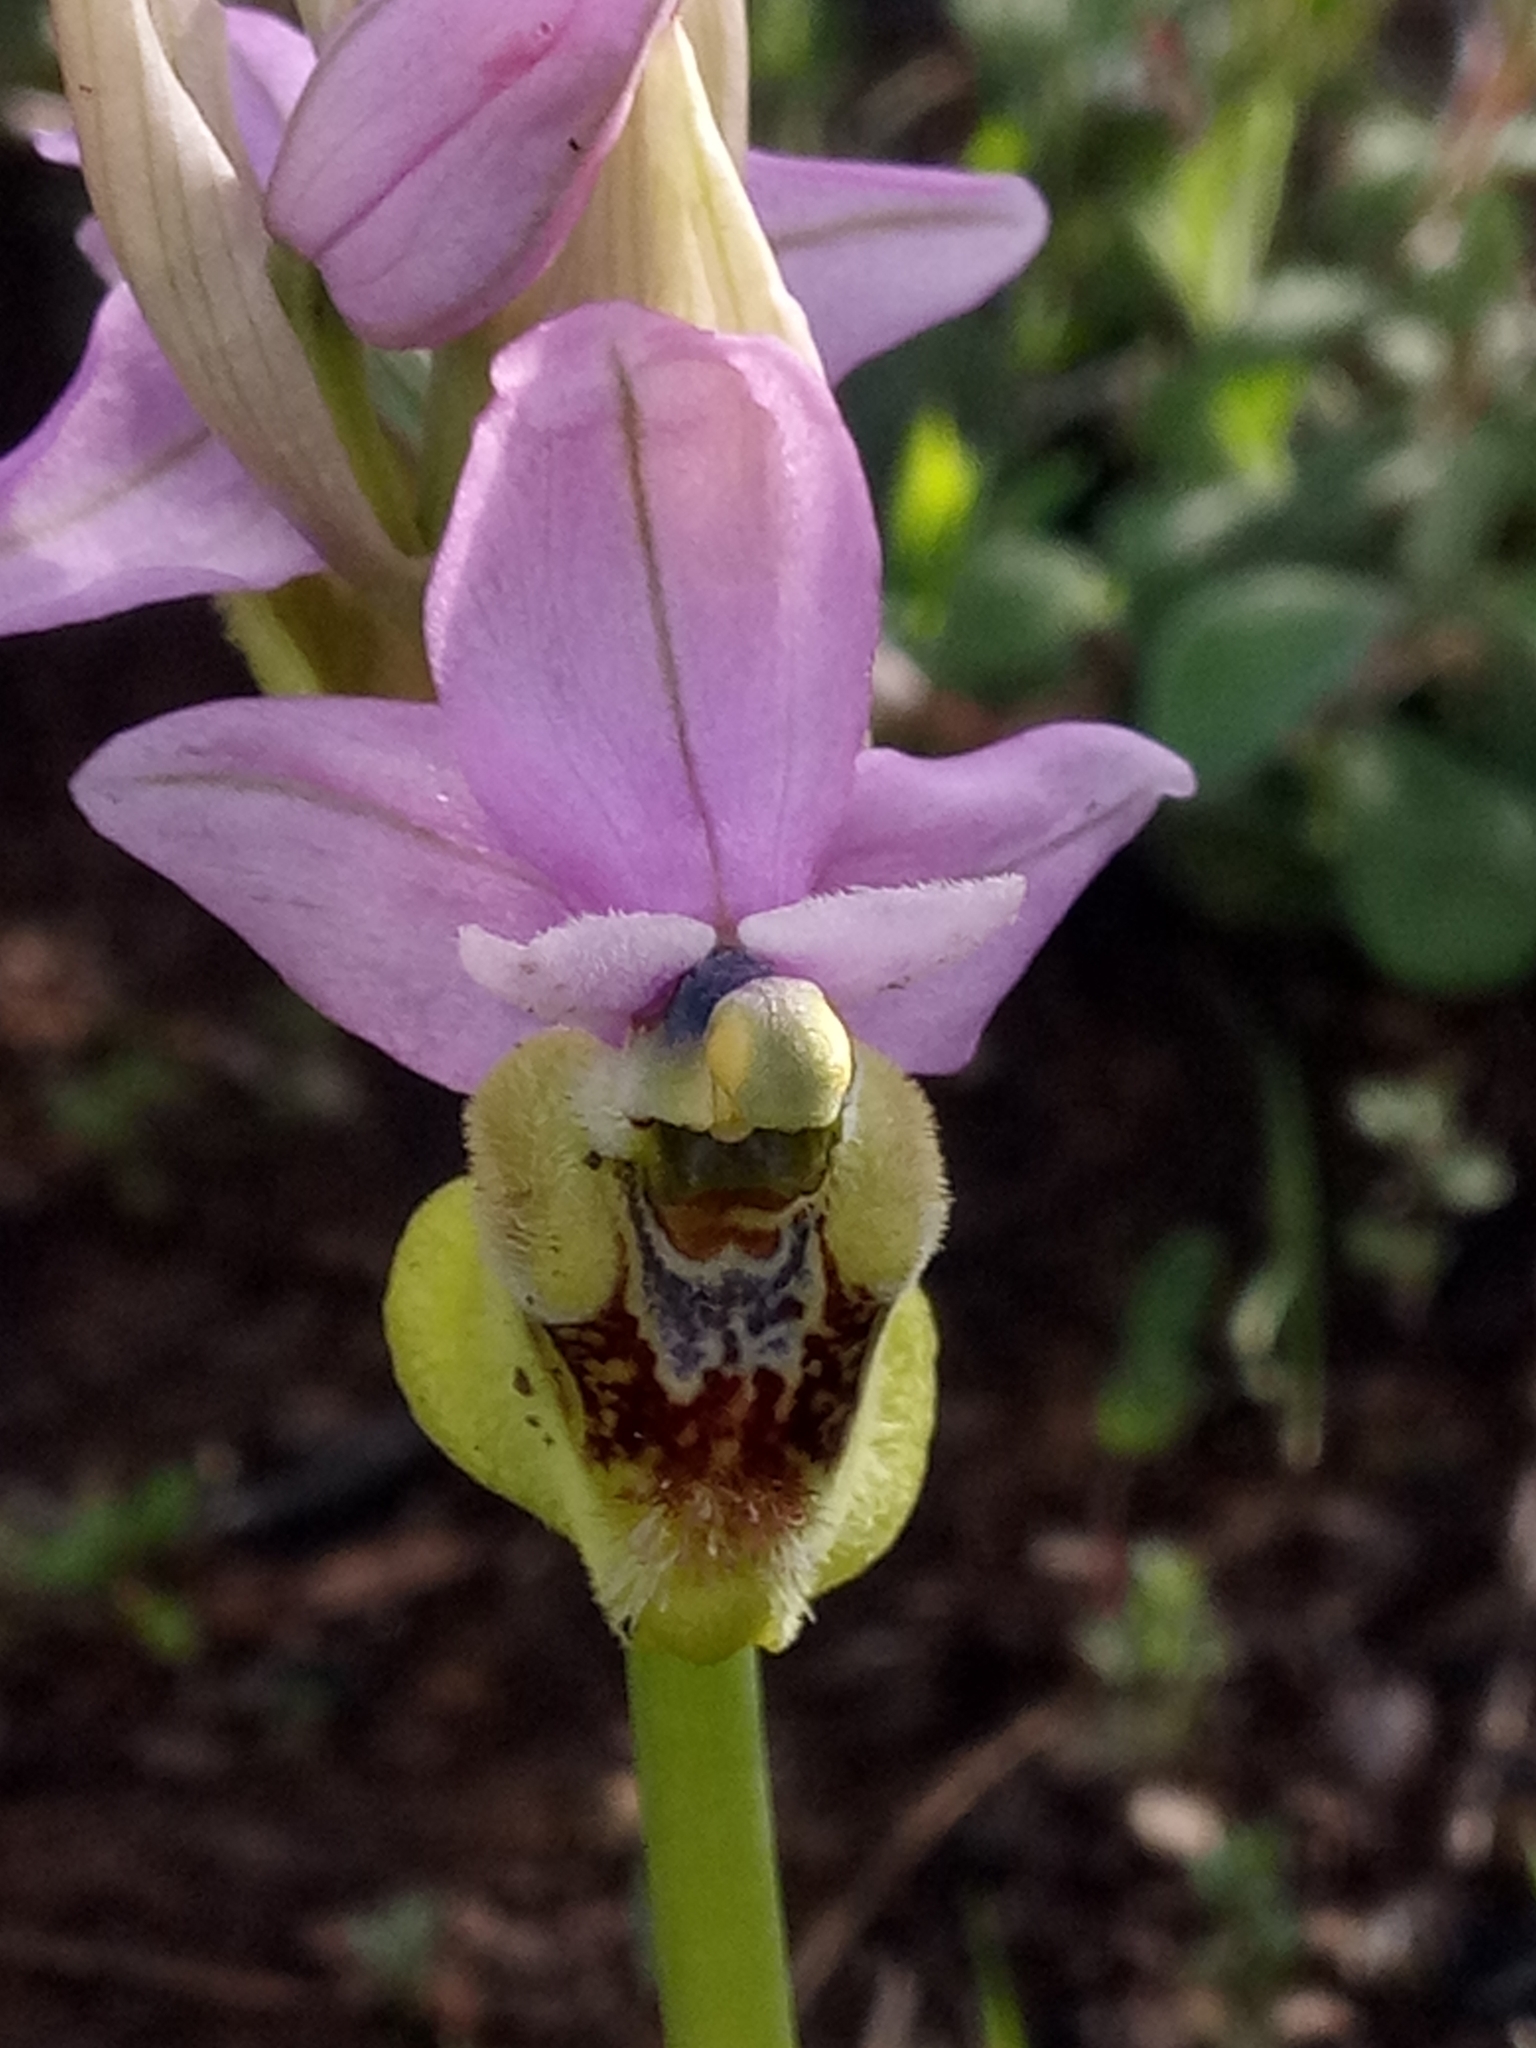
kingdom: Plantae
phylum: Tracheophyta
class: Liliopsida
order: Asparagales
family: Orchidaceae
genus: Ophrys
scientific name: Ophrys tenthredinifera
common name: Sawfly orchid
